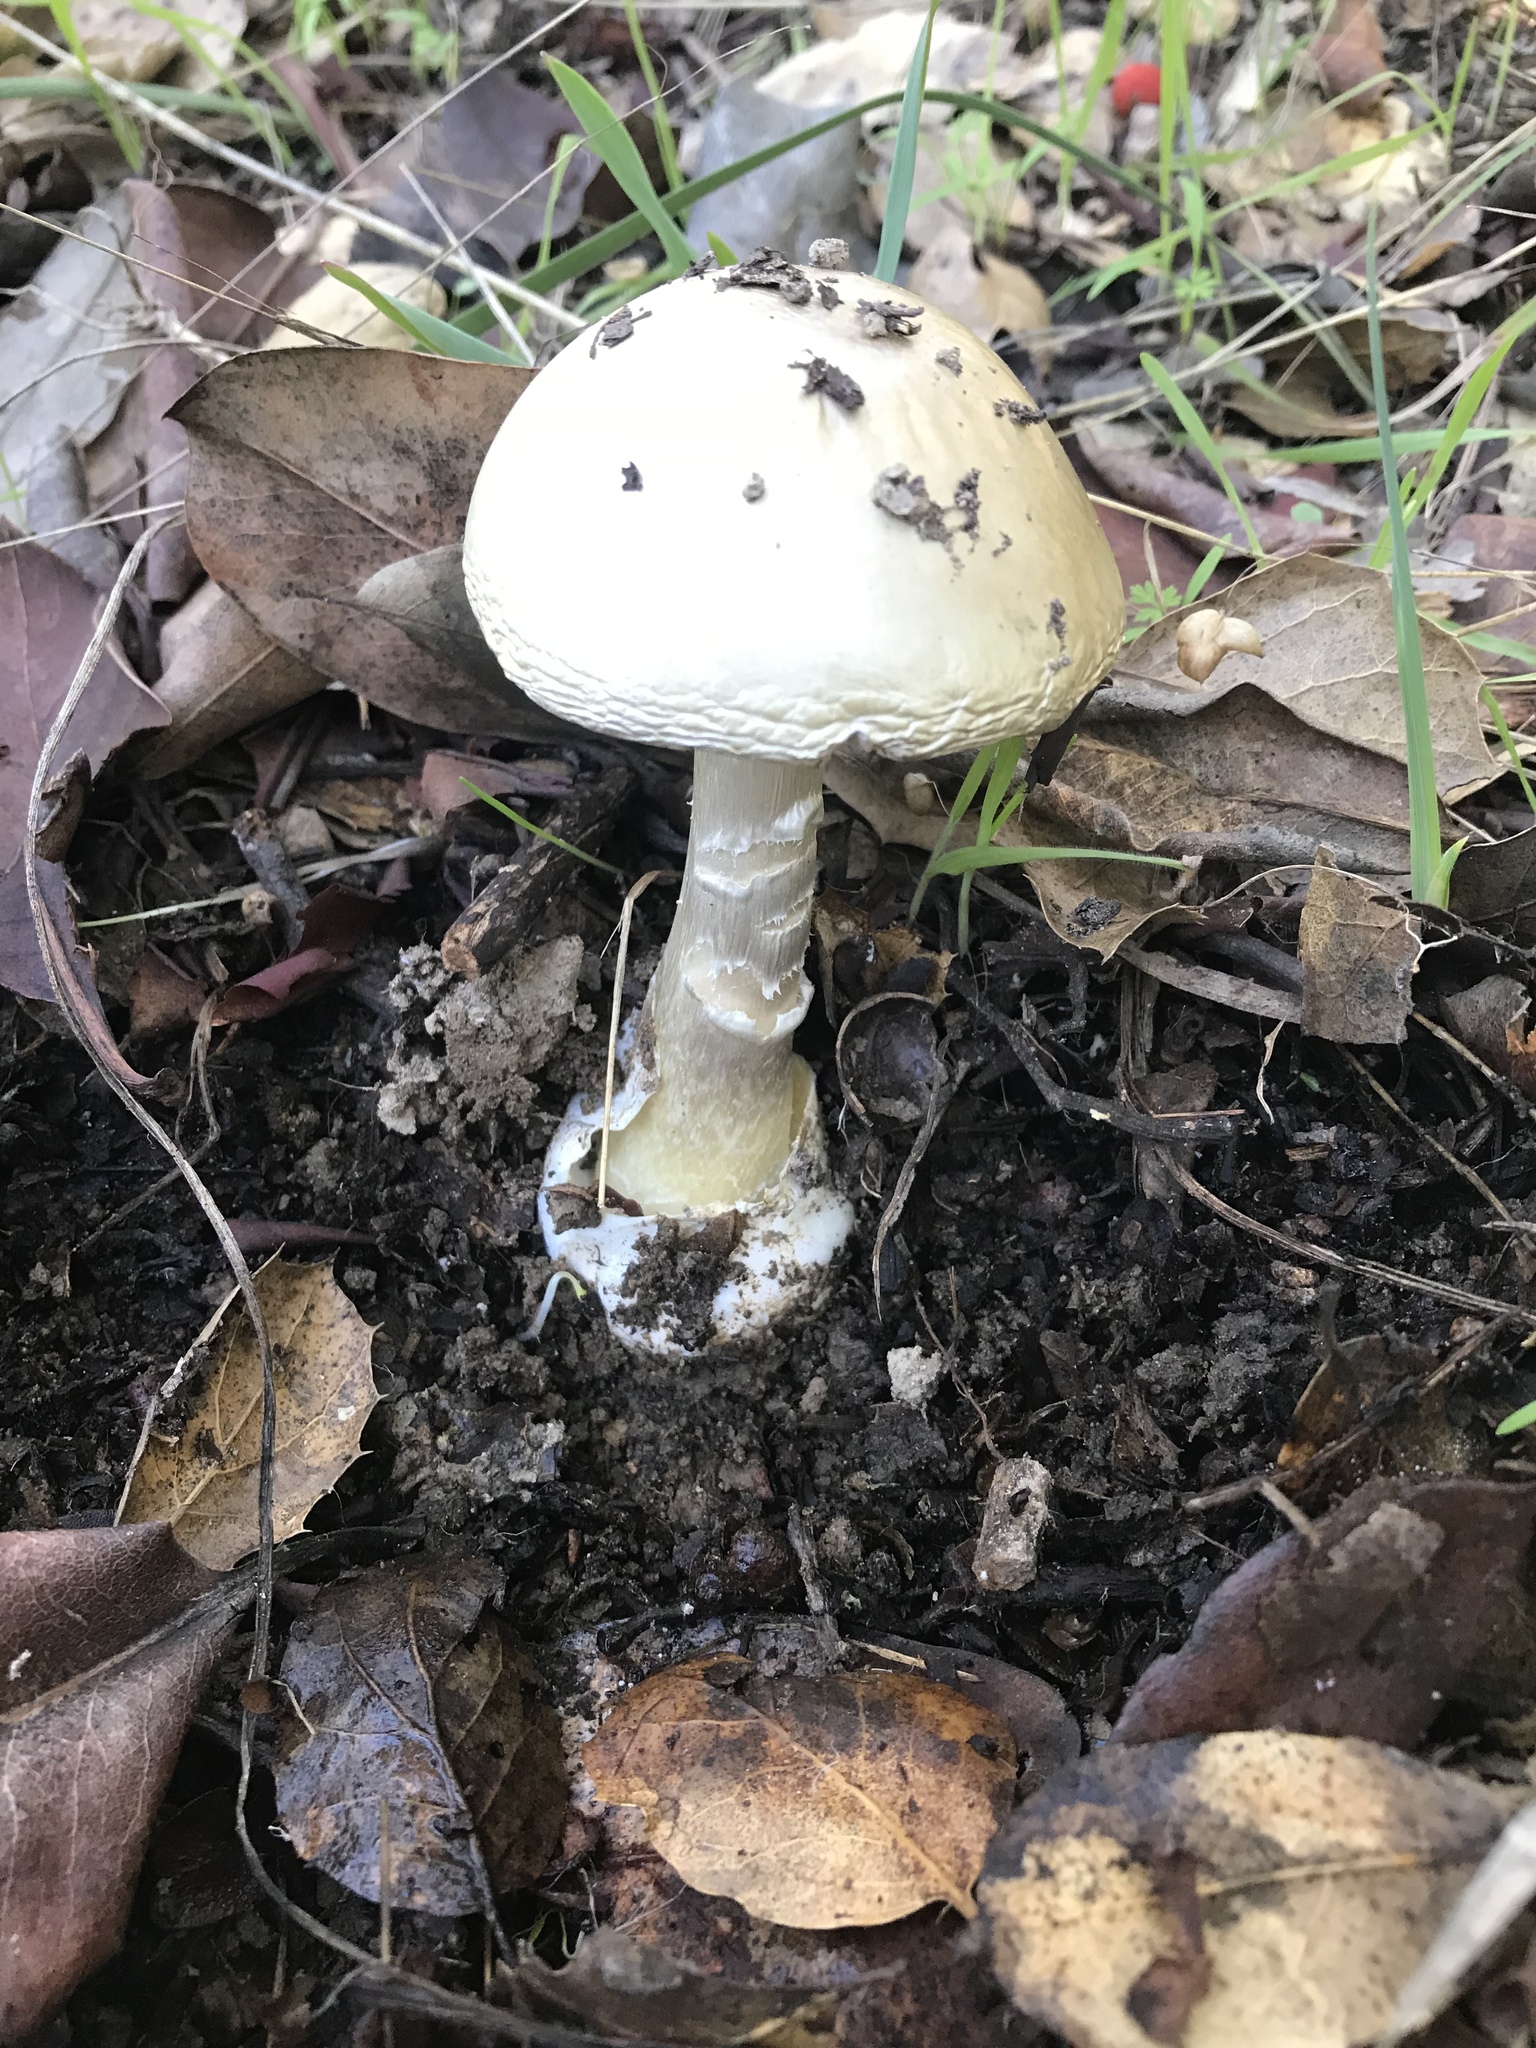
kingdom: Fungi
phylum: Basidiomycota
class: Agaricomycetes
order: Agaricales
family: Amanitaceae
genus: Amanita
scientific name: Amanita ocreata
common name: Western destroying angel
